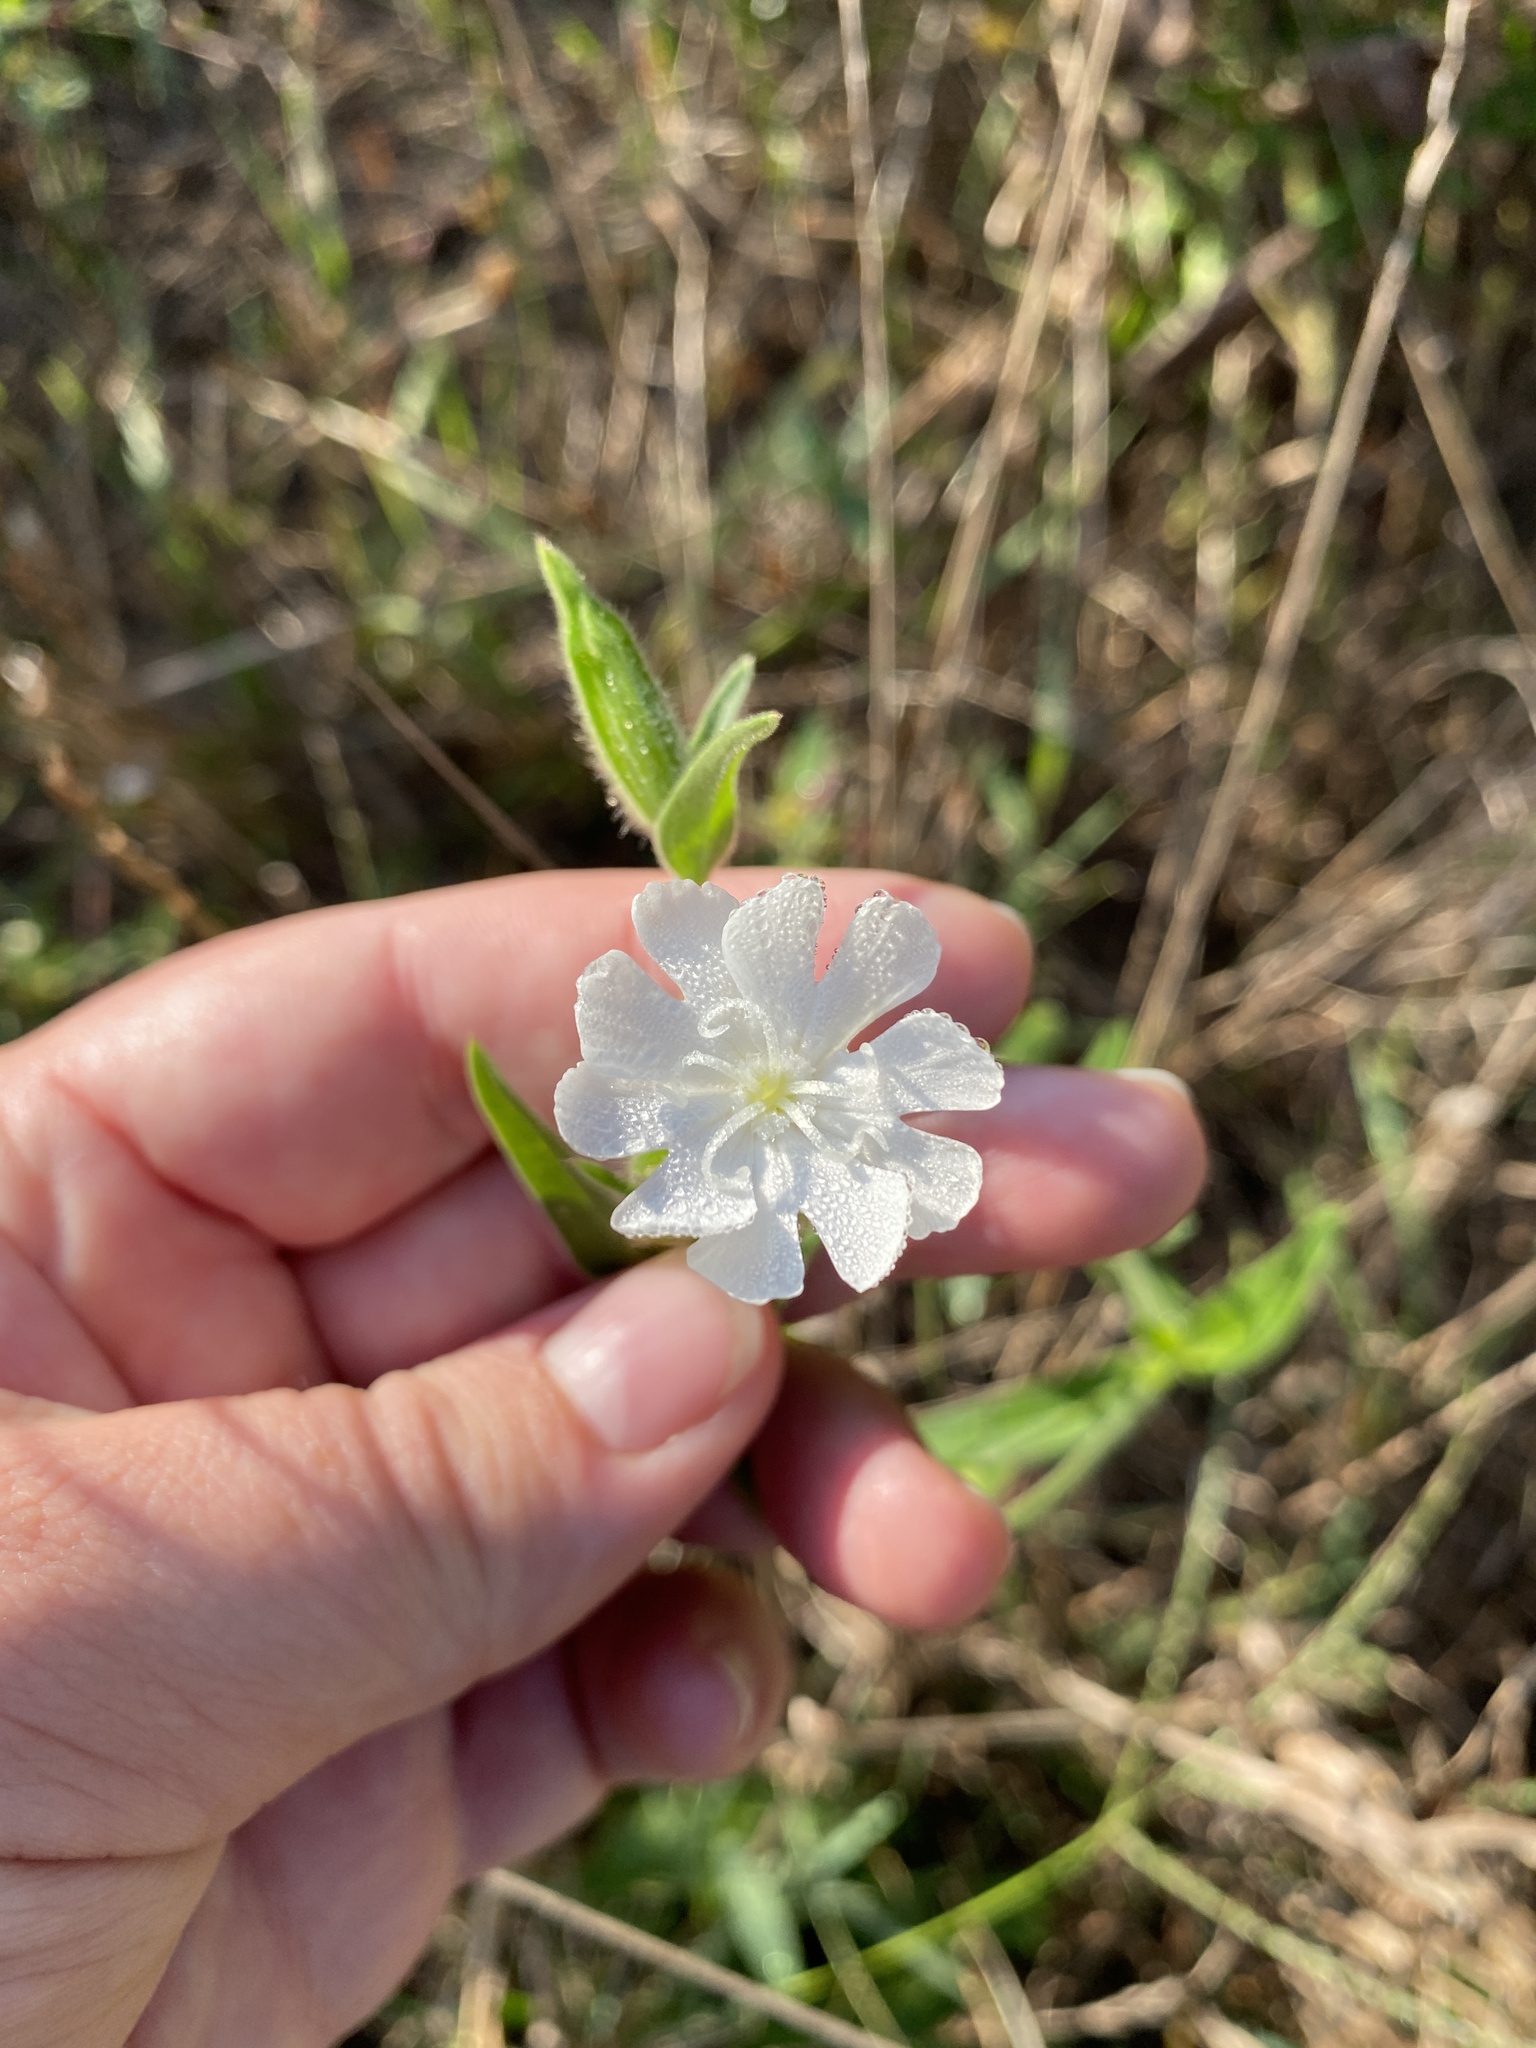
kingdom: Plantae
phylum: Tracheophyta
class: Magnoliopsida
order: Caryophyllales
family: Caryophyllaceae
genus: Silene
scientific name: Silene latifolia
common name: White campion
